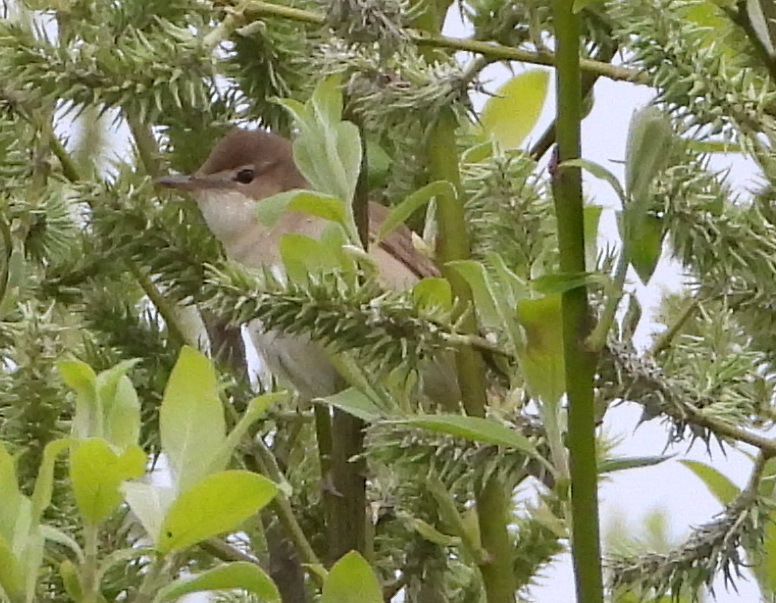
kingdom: Animalia
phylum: Chordata
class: Aves
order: Passeriformes
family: Acrocephalidae
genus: Acrocephalus
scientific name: Acrocephalus dumetorum
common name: Blyth's reed warbler
